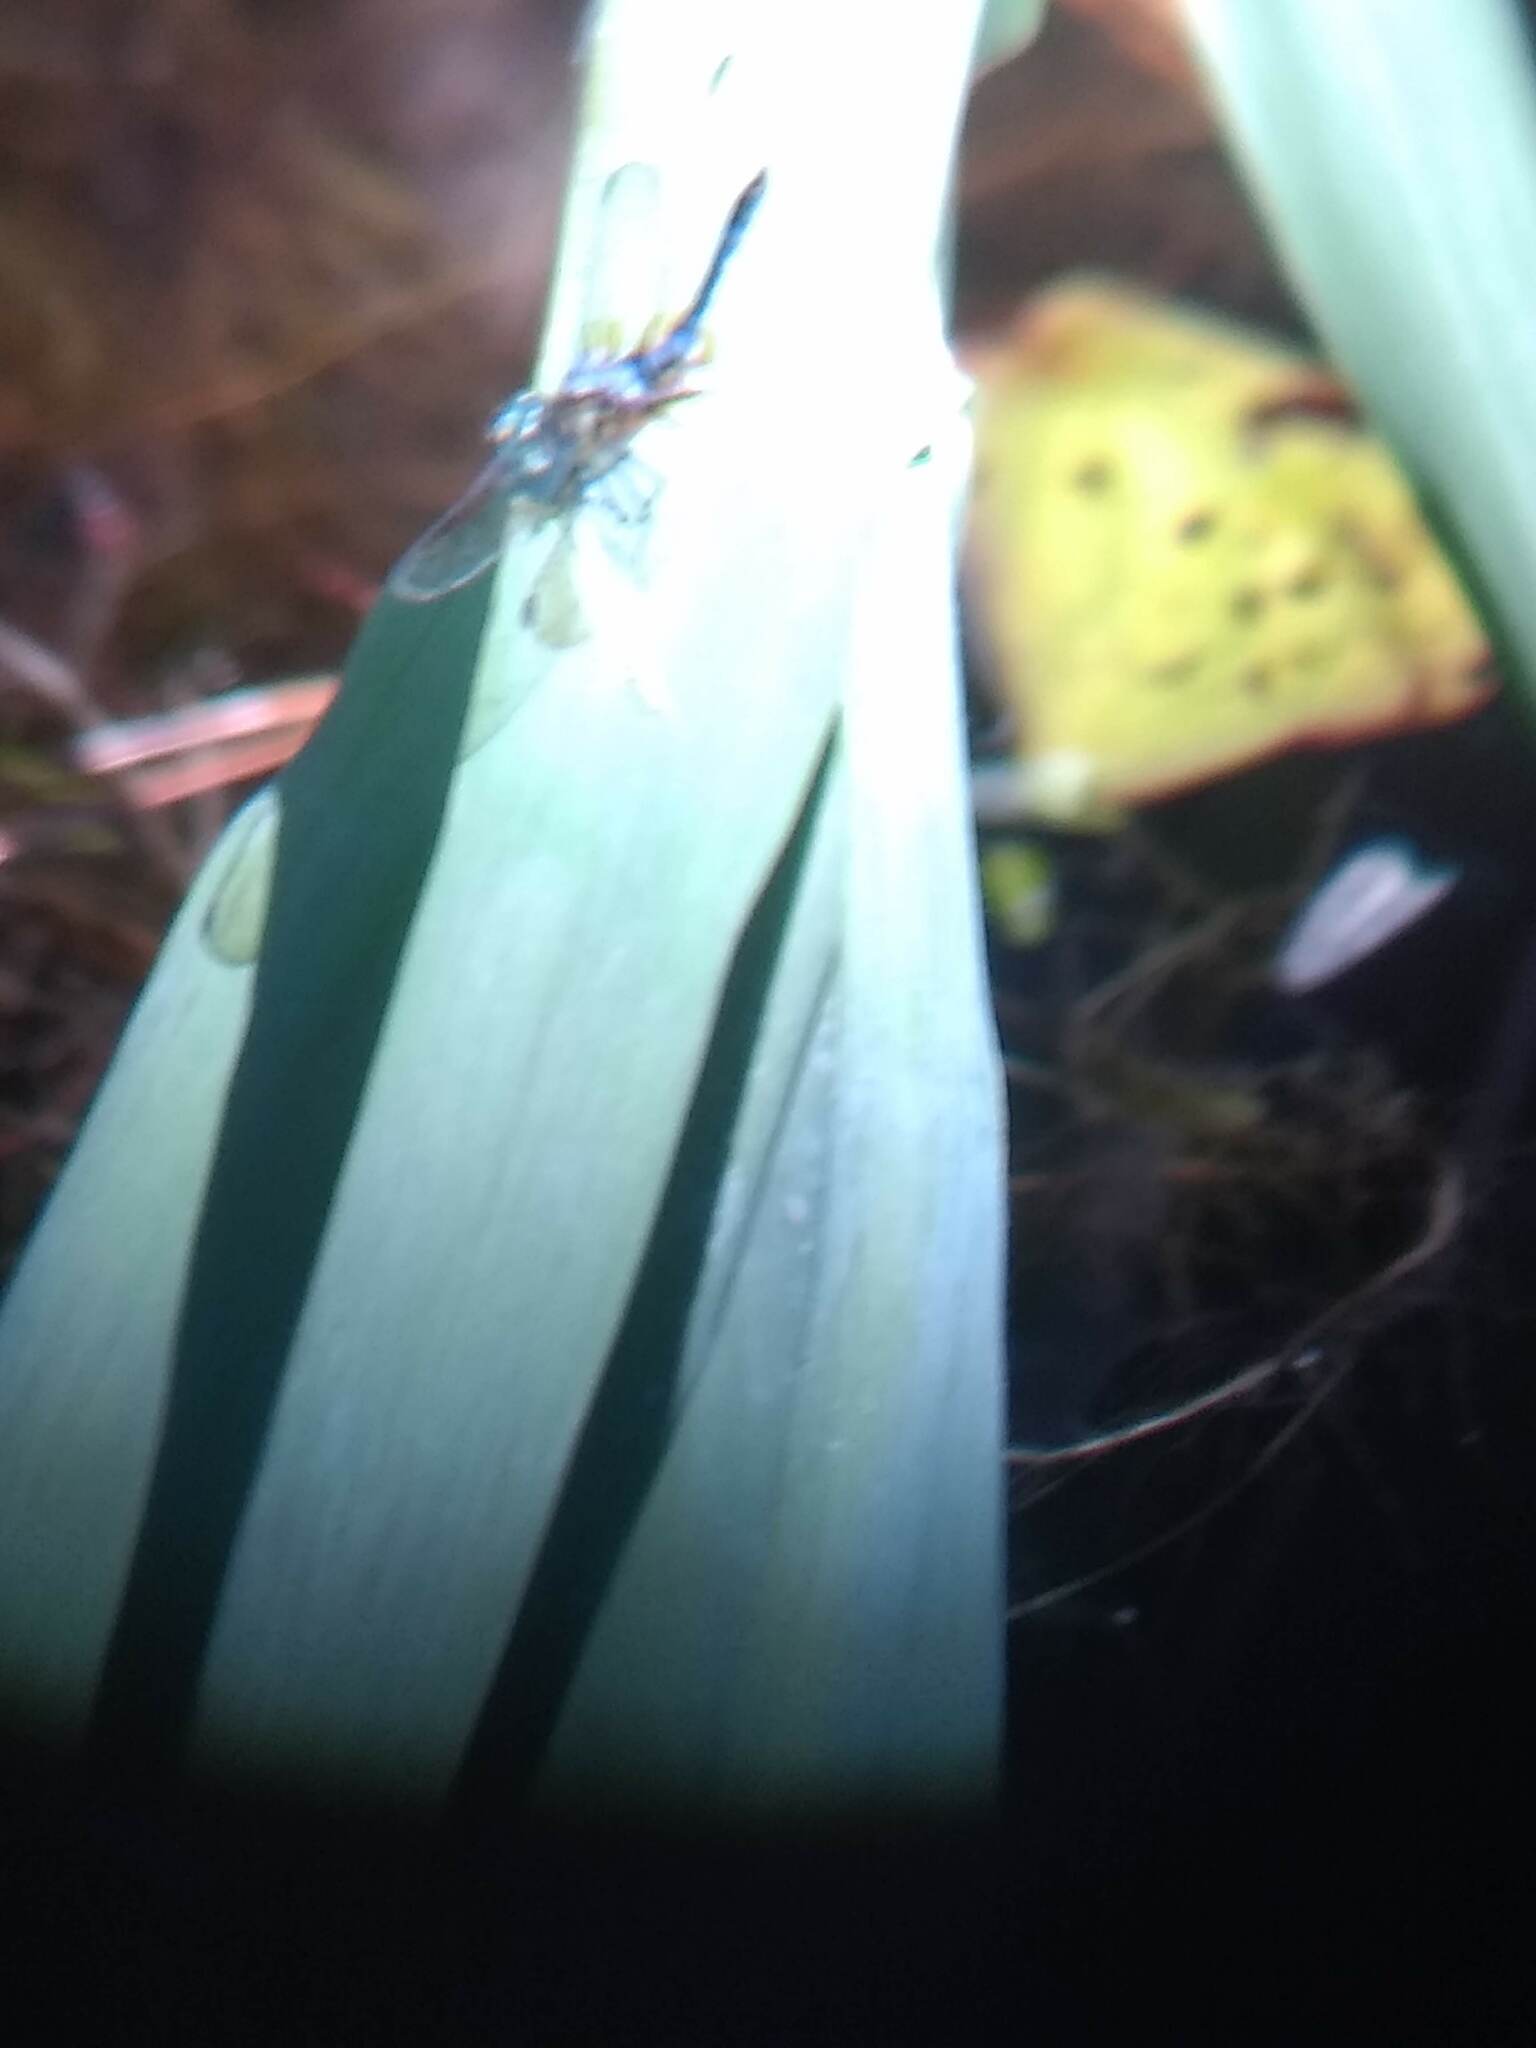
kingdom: Animalia
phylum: Arthropoda
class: Insecta
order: Odonata
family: Libellulidae
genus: Pachydiplax
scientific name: Pachydiplax longipennis
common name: Blue dasher
